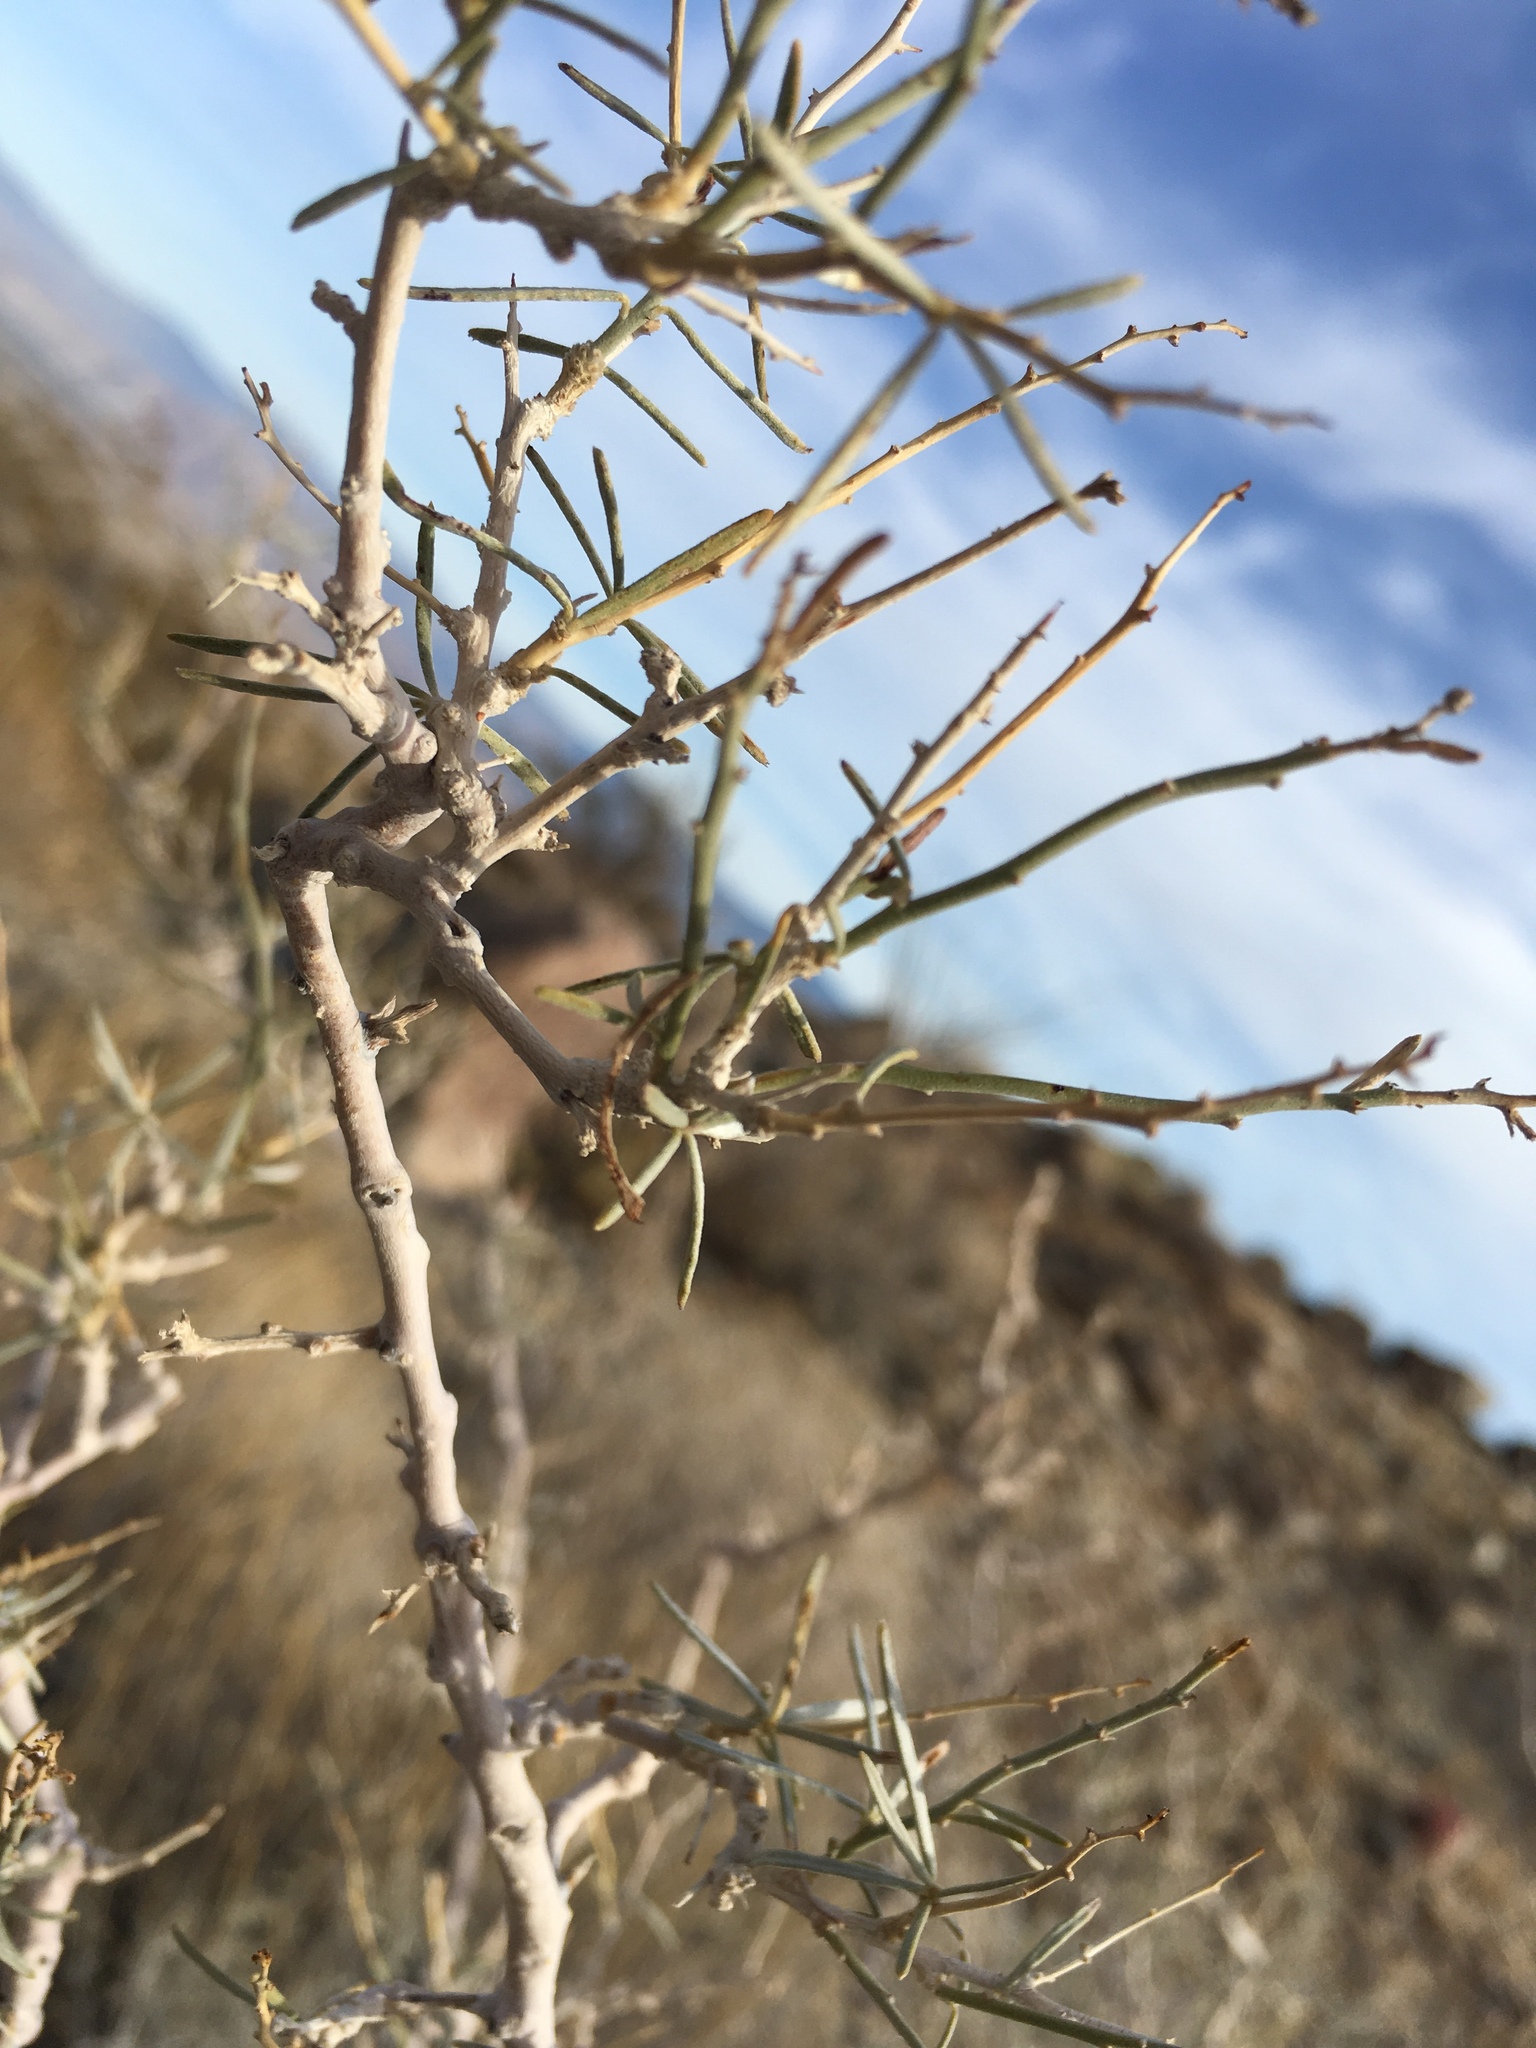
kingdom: Plantae
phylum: Tracheophyta
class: Magnoliopsida
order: Fabales
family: Fabaceae
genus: Psorothamnus
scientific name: Psorothamnus schottii
